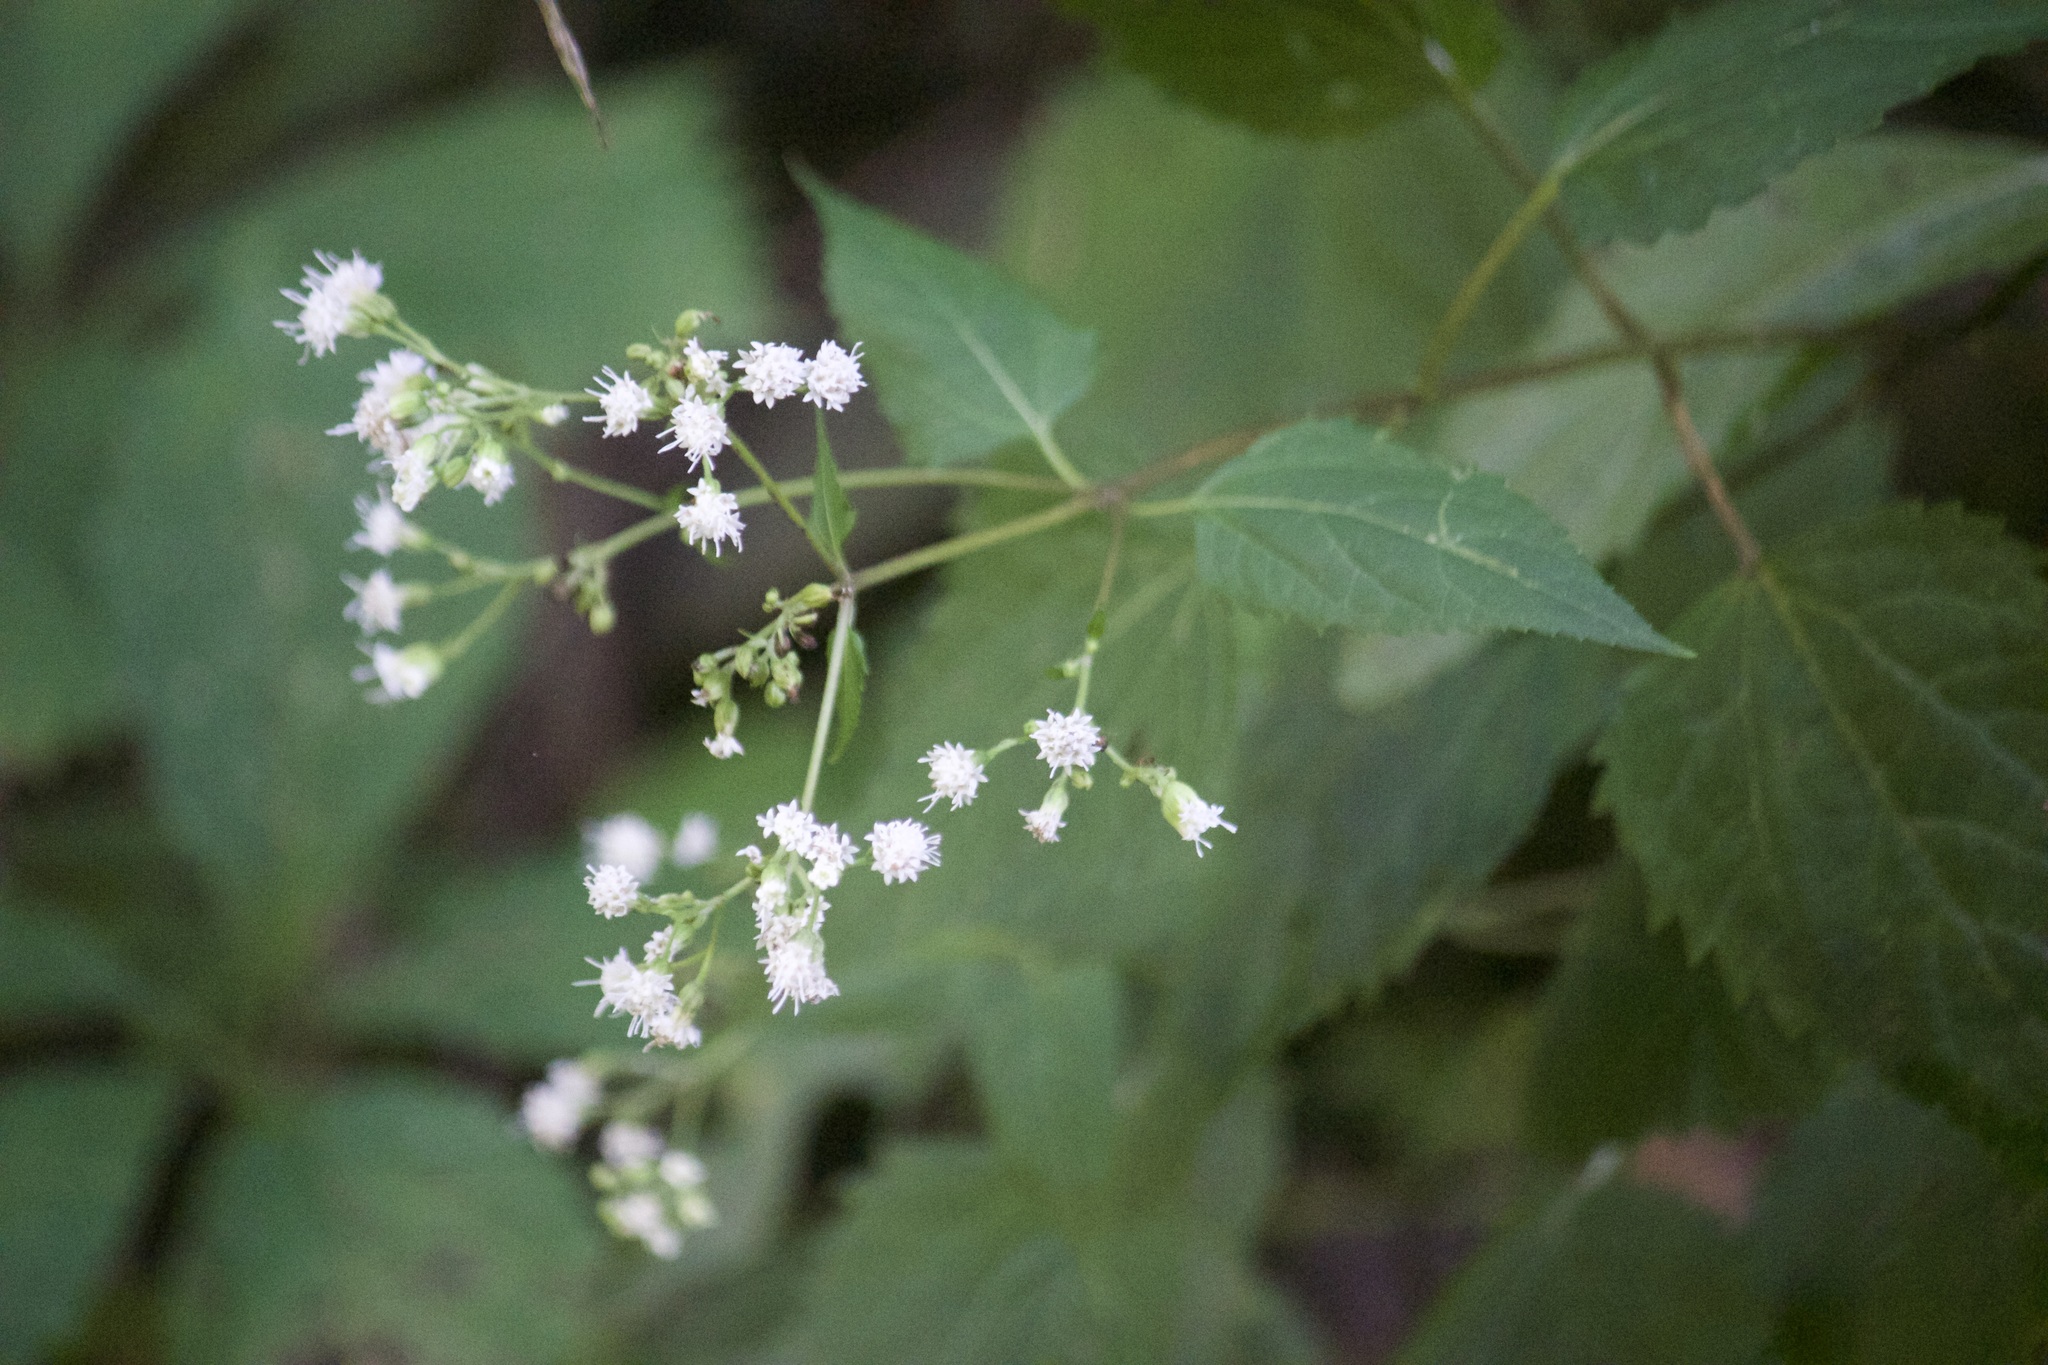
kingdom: Plantae
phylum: Tracheophyta
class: Magnoliopsida
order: Asterales
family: Asteraceae
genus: Ageratina
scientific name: Ageratina altissima
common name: White snakeroot
